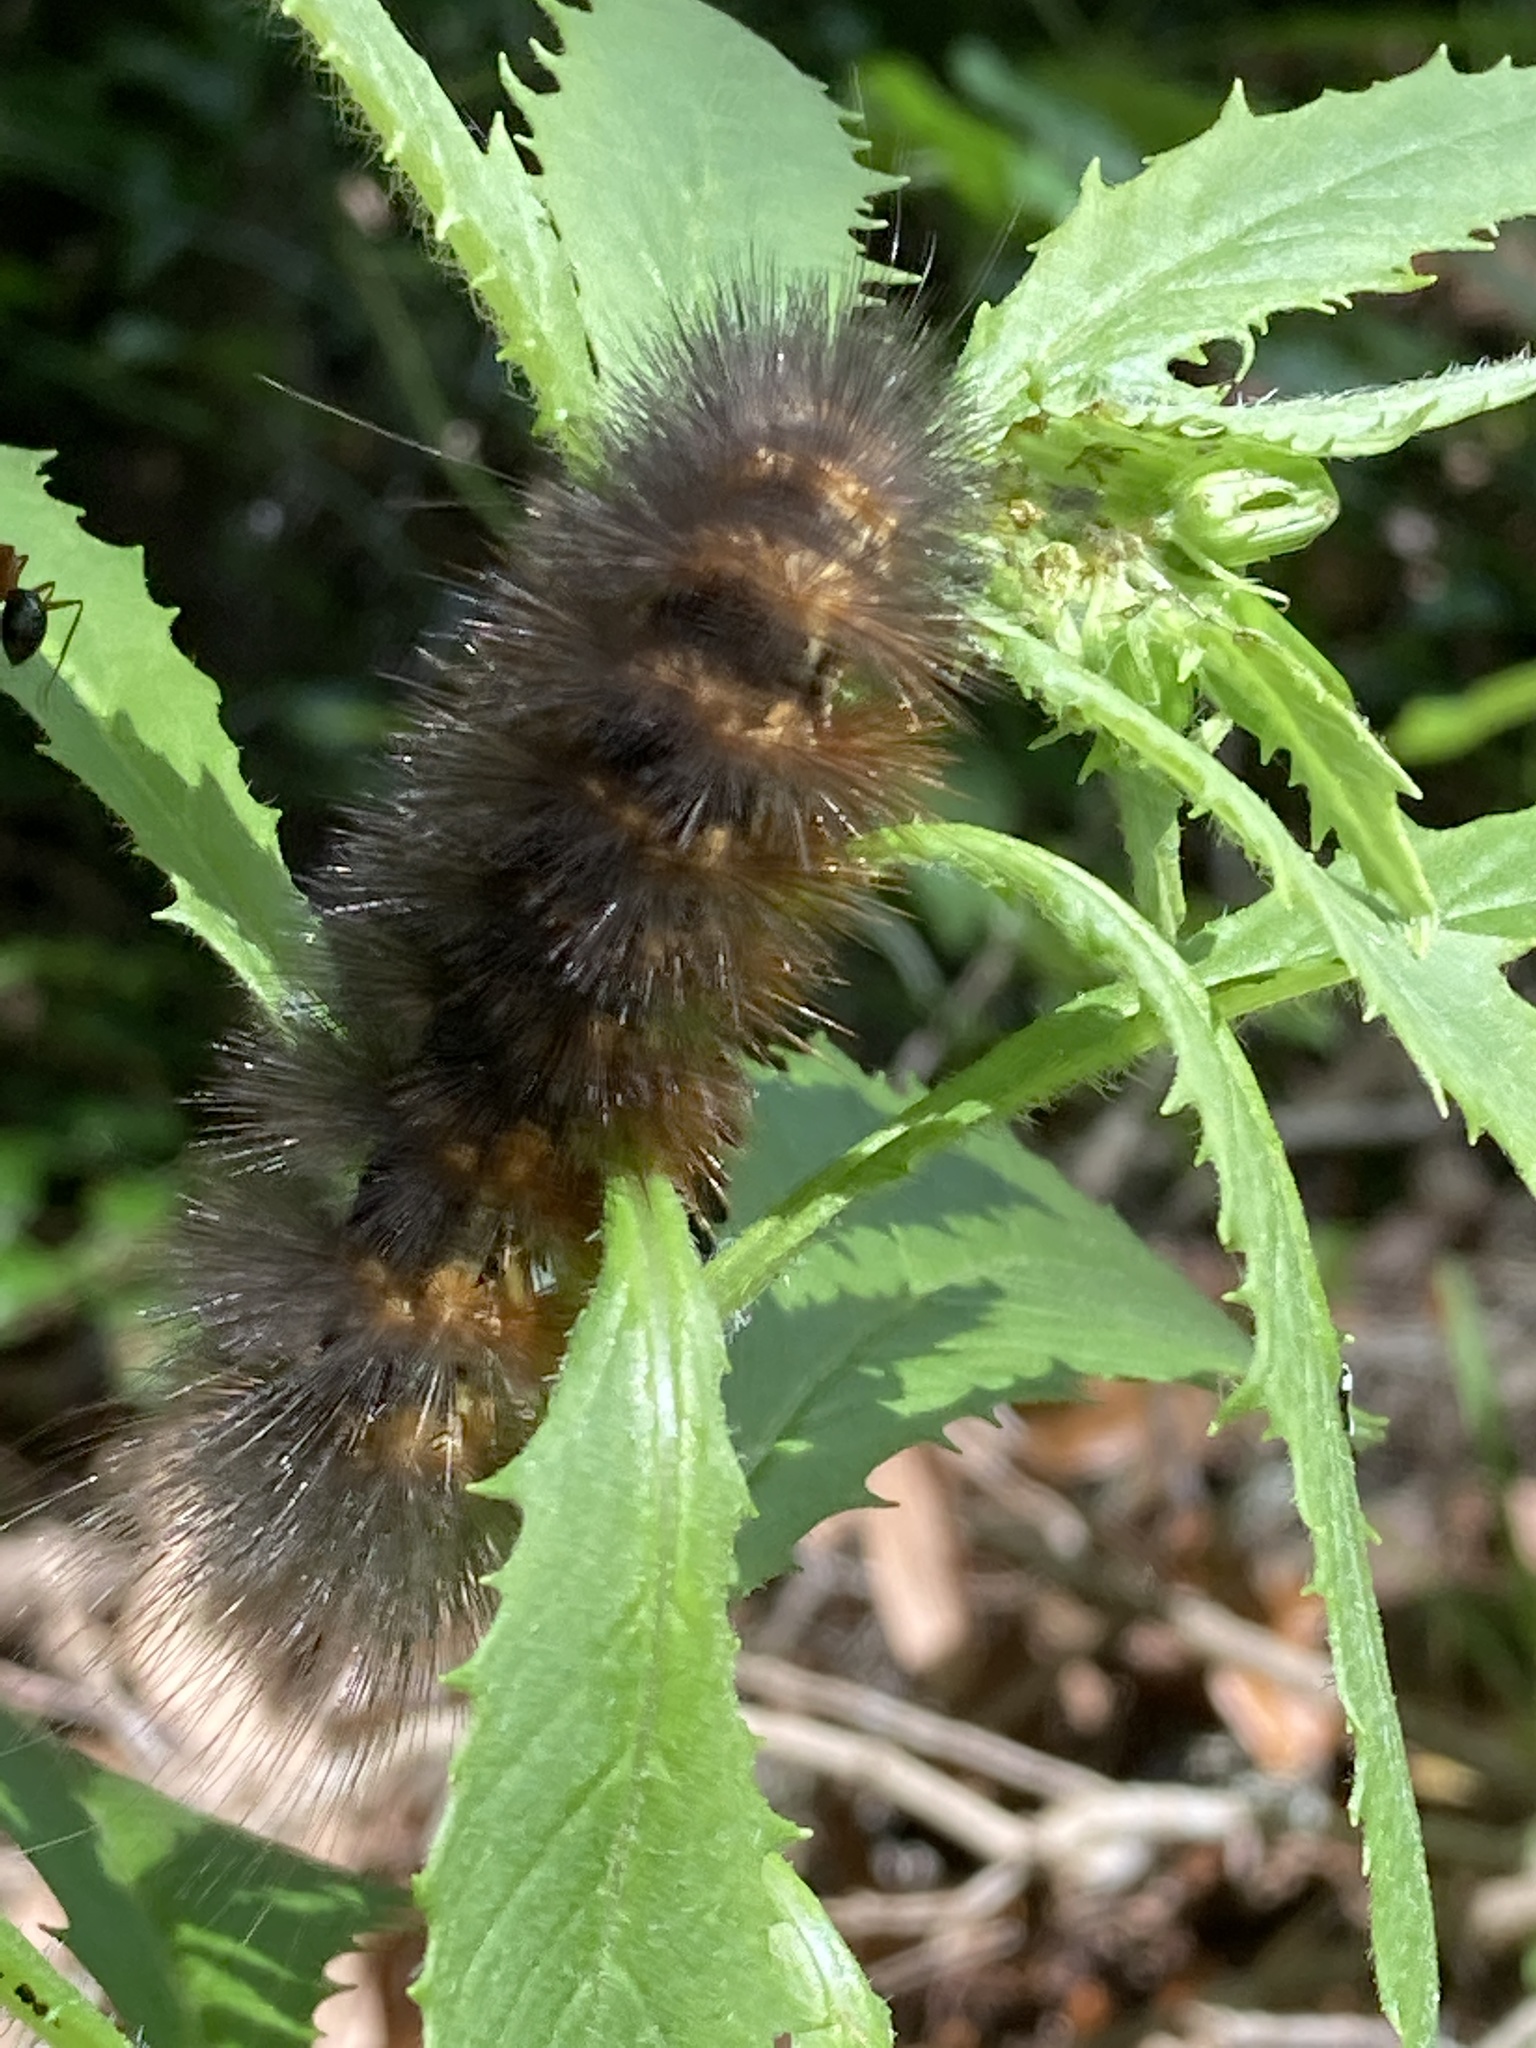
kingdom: Animalia
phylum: Arthropoda
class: Insecta
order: Lepidoptera
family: Erebidae
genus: Estigmene
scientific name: Estigmene acrea
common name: Salt marsh moth
